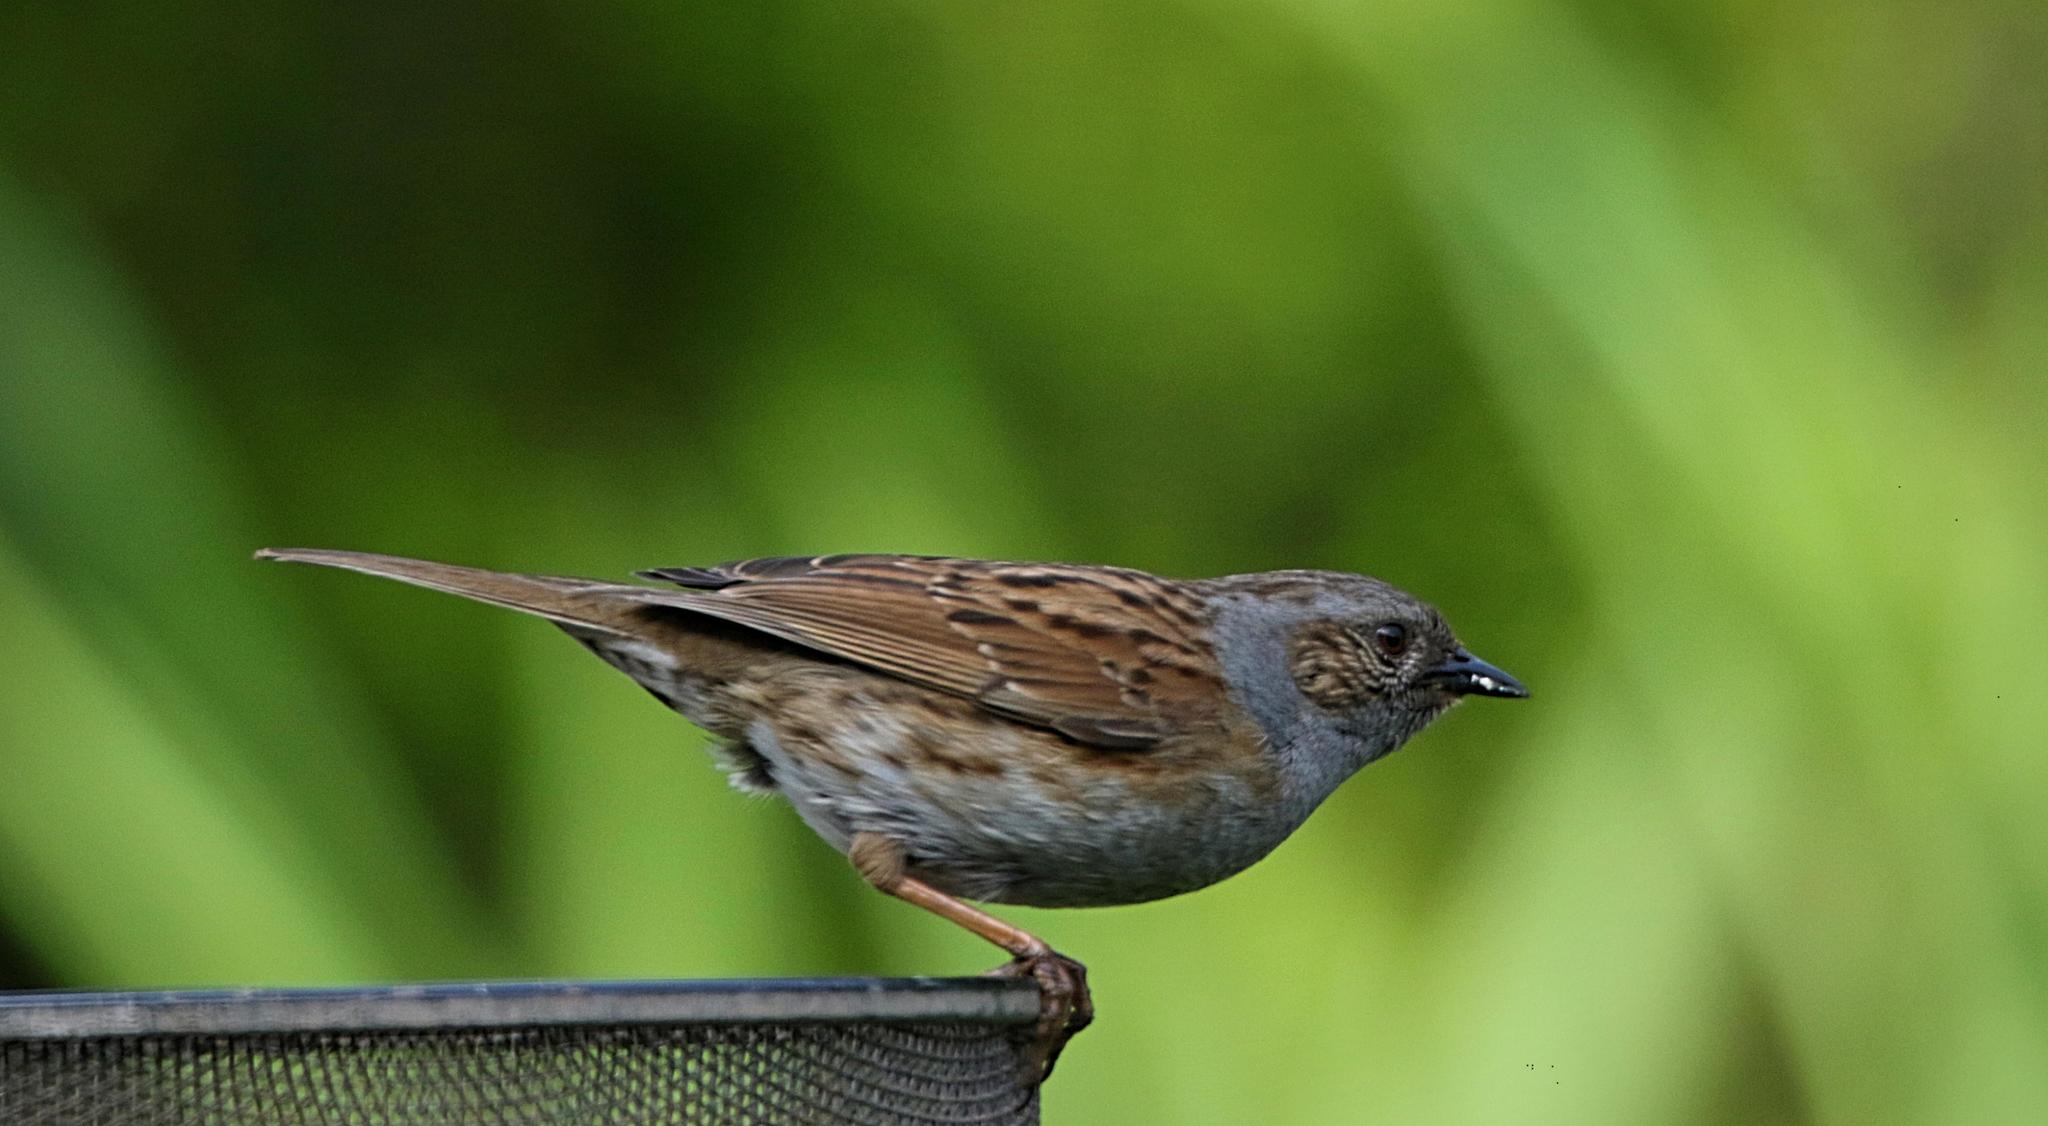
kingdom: Animalia
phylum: Chordata
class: Aves
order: Passeriformes
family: Prunellidae
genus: Prunella
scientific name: Prunella modularis
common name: Dunnock
